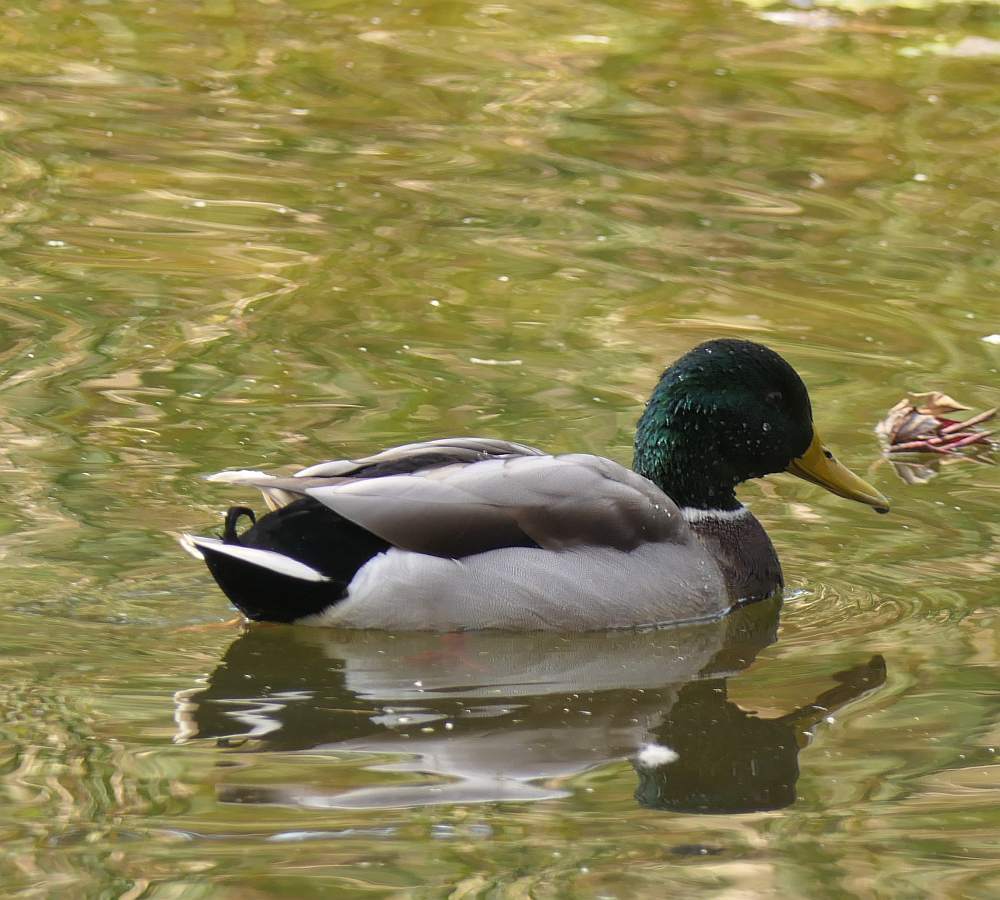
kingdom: Animalia
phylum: Chordata
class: Aves
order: Anseriformes
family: Anatidae
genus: Anas
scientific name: Anas platyrhynchos
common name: Mallard
